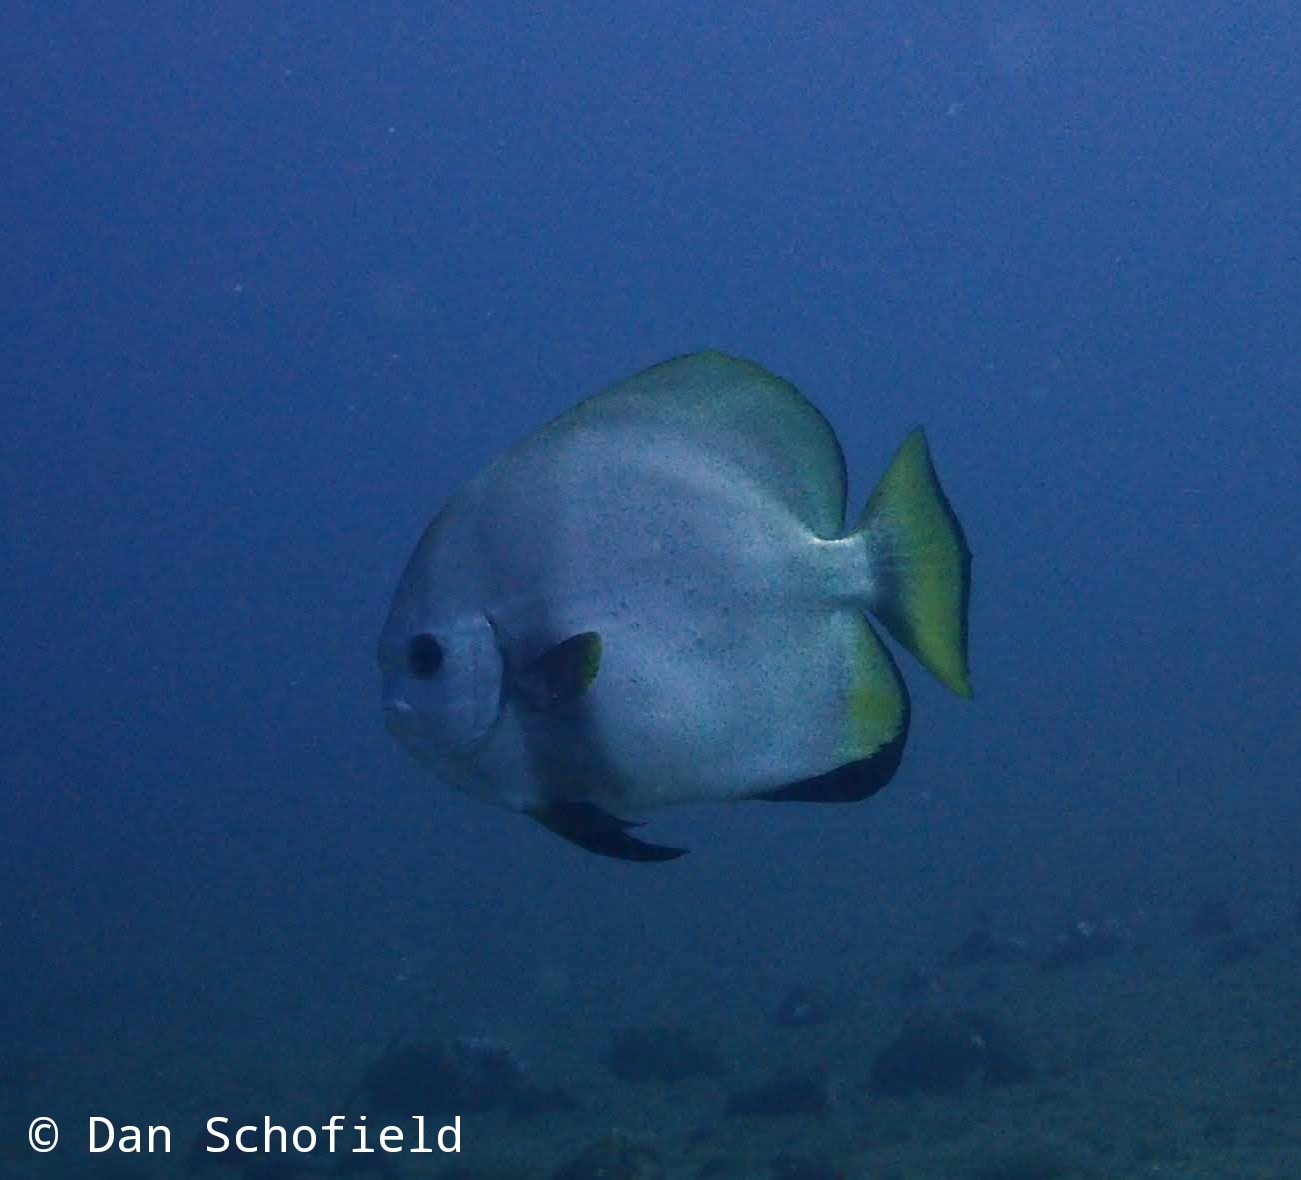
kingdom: Animalia
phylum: Chordata
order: Perciformes
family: Ephippidae
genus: Platax
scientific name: Platax orbicularis
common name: Batfish
